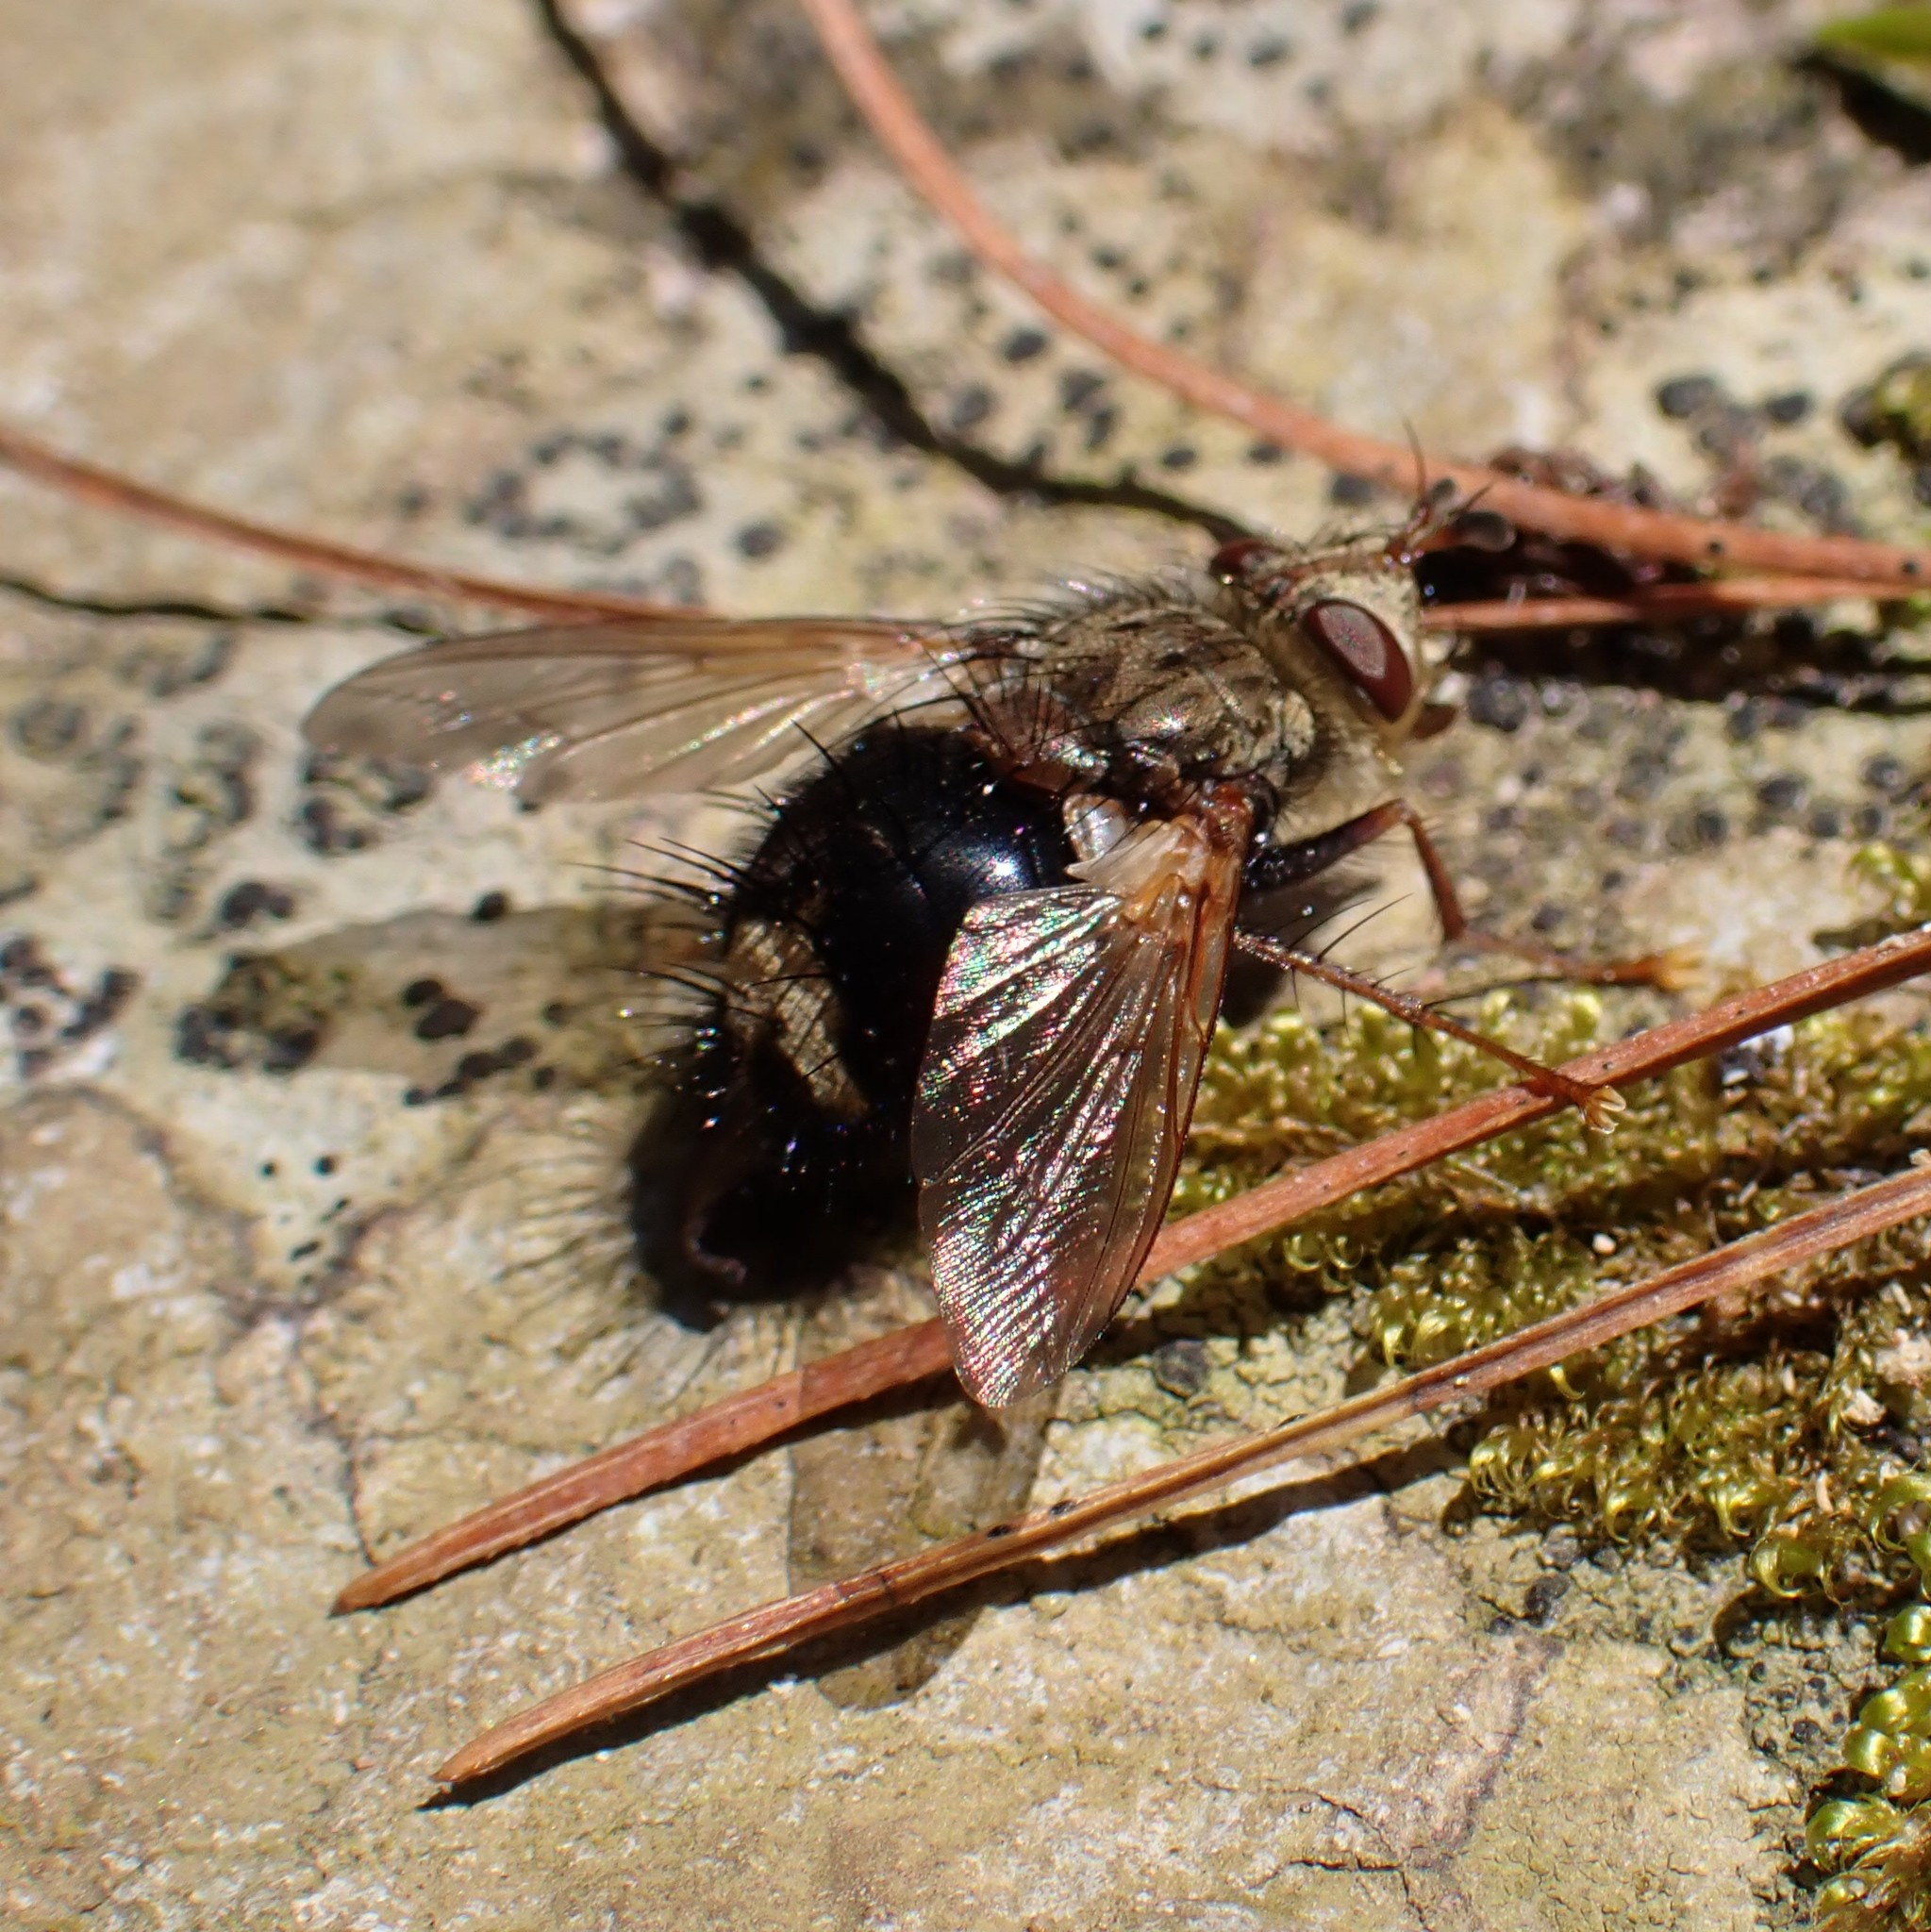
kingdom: Animalia
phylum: Arthropoda
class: Insecta
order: Diptera
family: Tachinidae
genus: Epalpus
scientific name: Epalpus signifer
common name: Early tachinid fly
